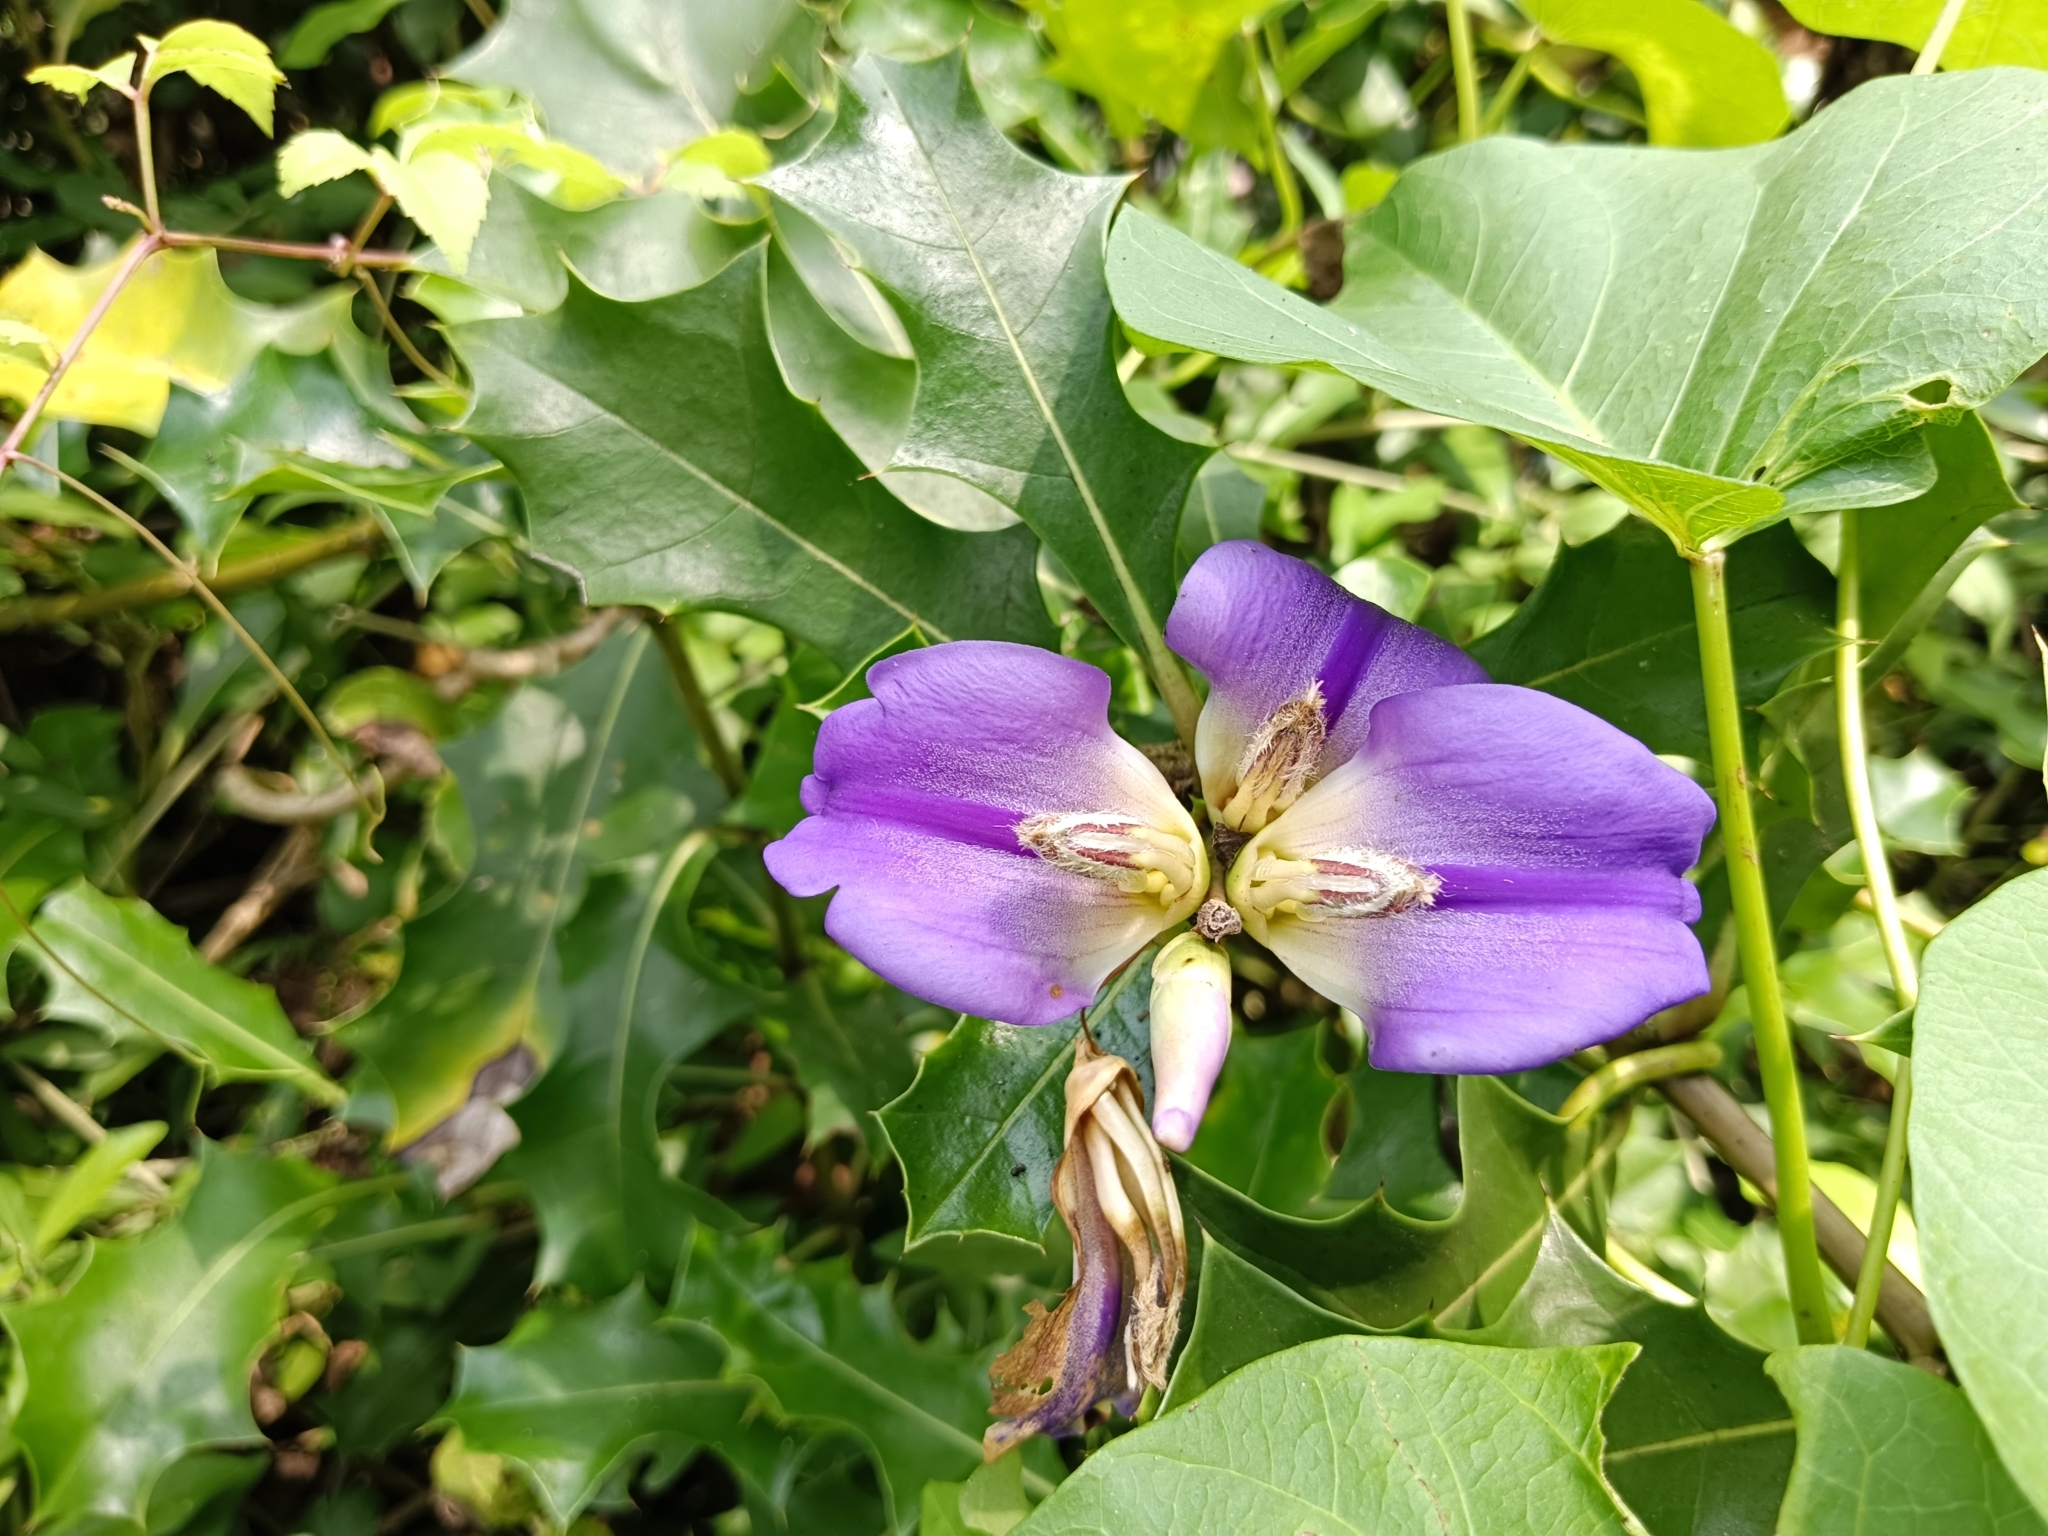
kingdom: Plantae
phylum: Tracheophyta
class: Magnoliopsida
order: Lamiales
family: Acanthaceae
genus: Acanthus
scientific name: Acanthus ilicifolius
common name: Holy mangrove
